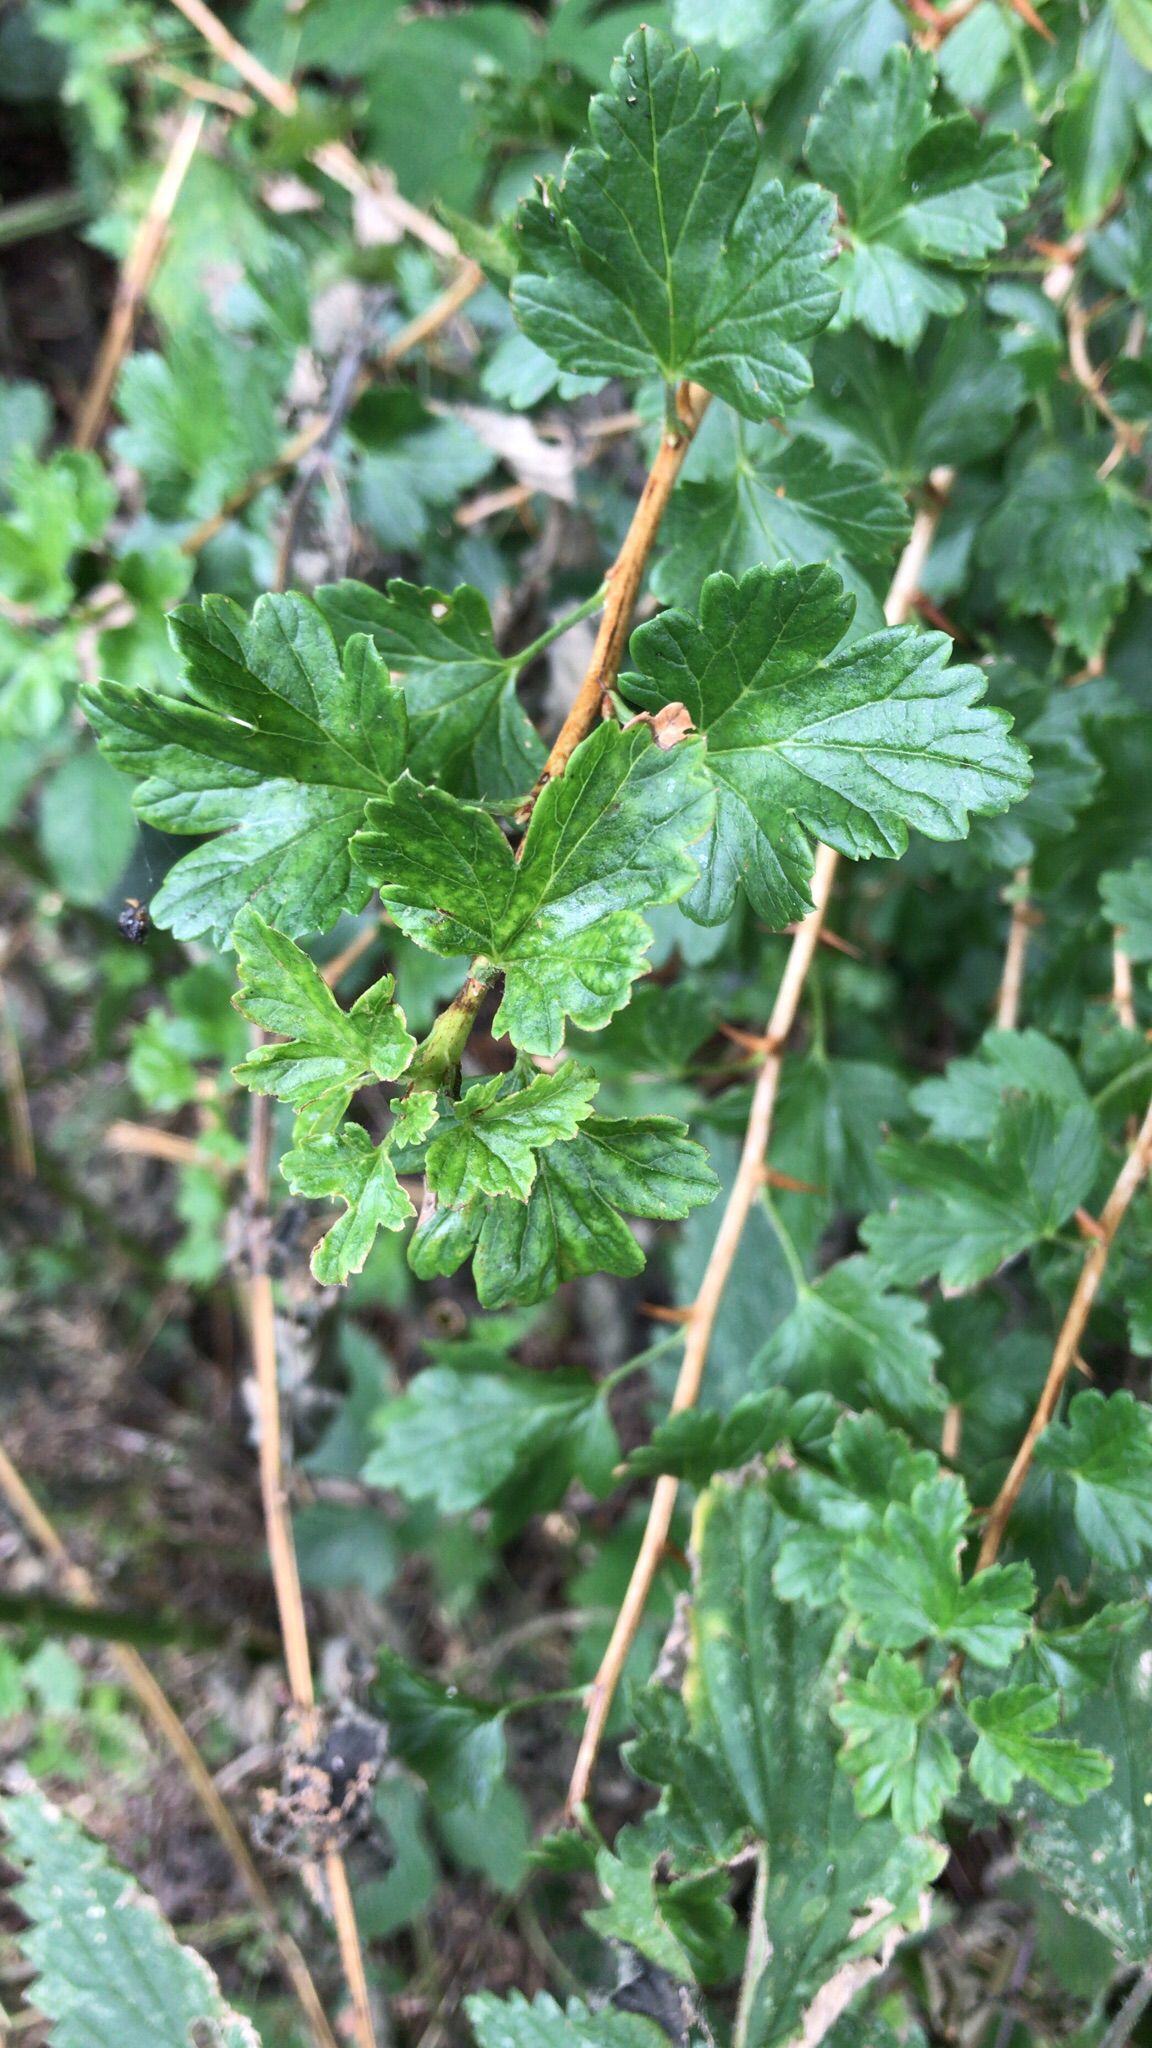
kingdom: Plantae
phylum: Tracheophyta
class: Magnoliopsida
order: Saxifragales
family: Grossulariaceae
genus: Ribes
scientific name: Ribes uva-crispa
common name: Gooseberry
